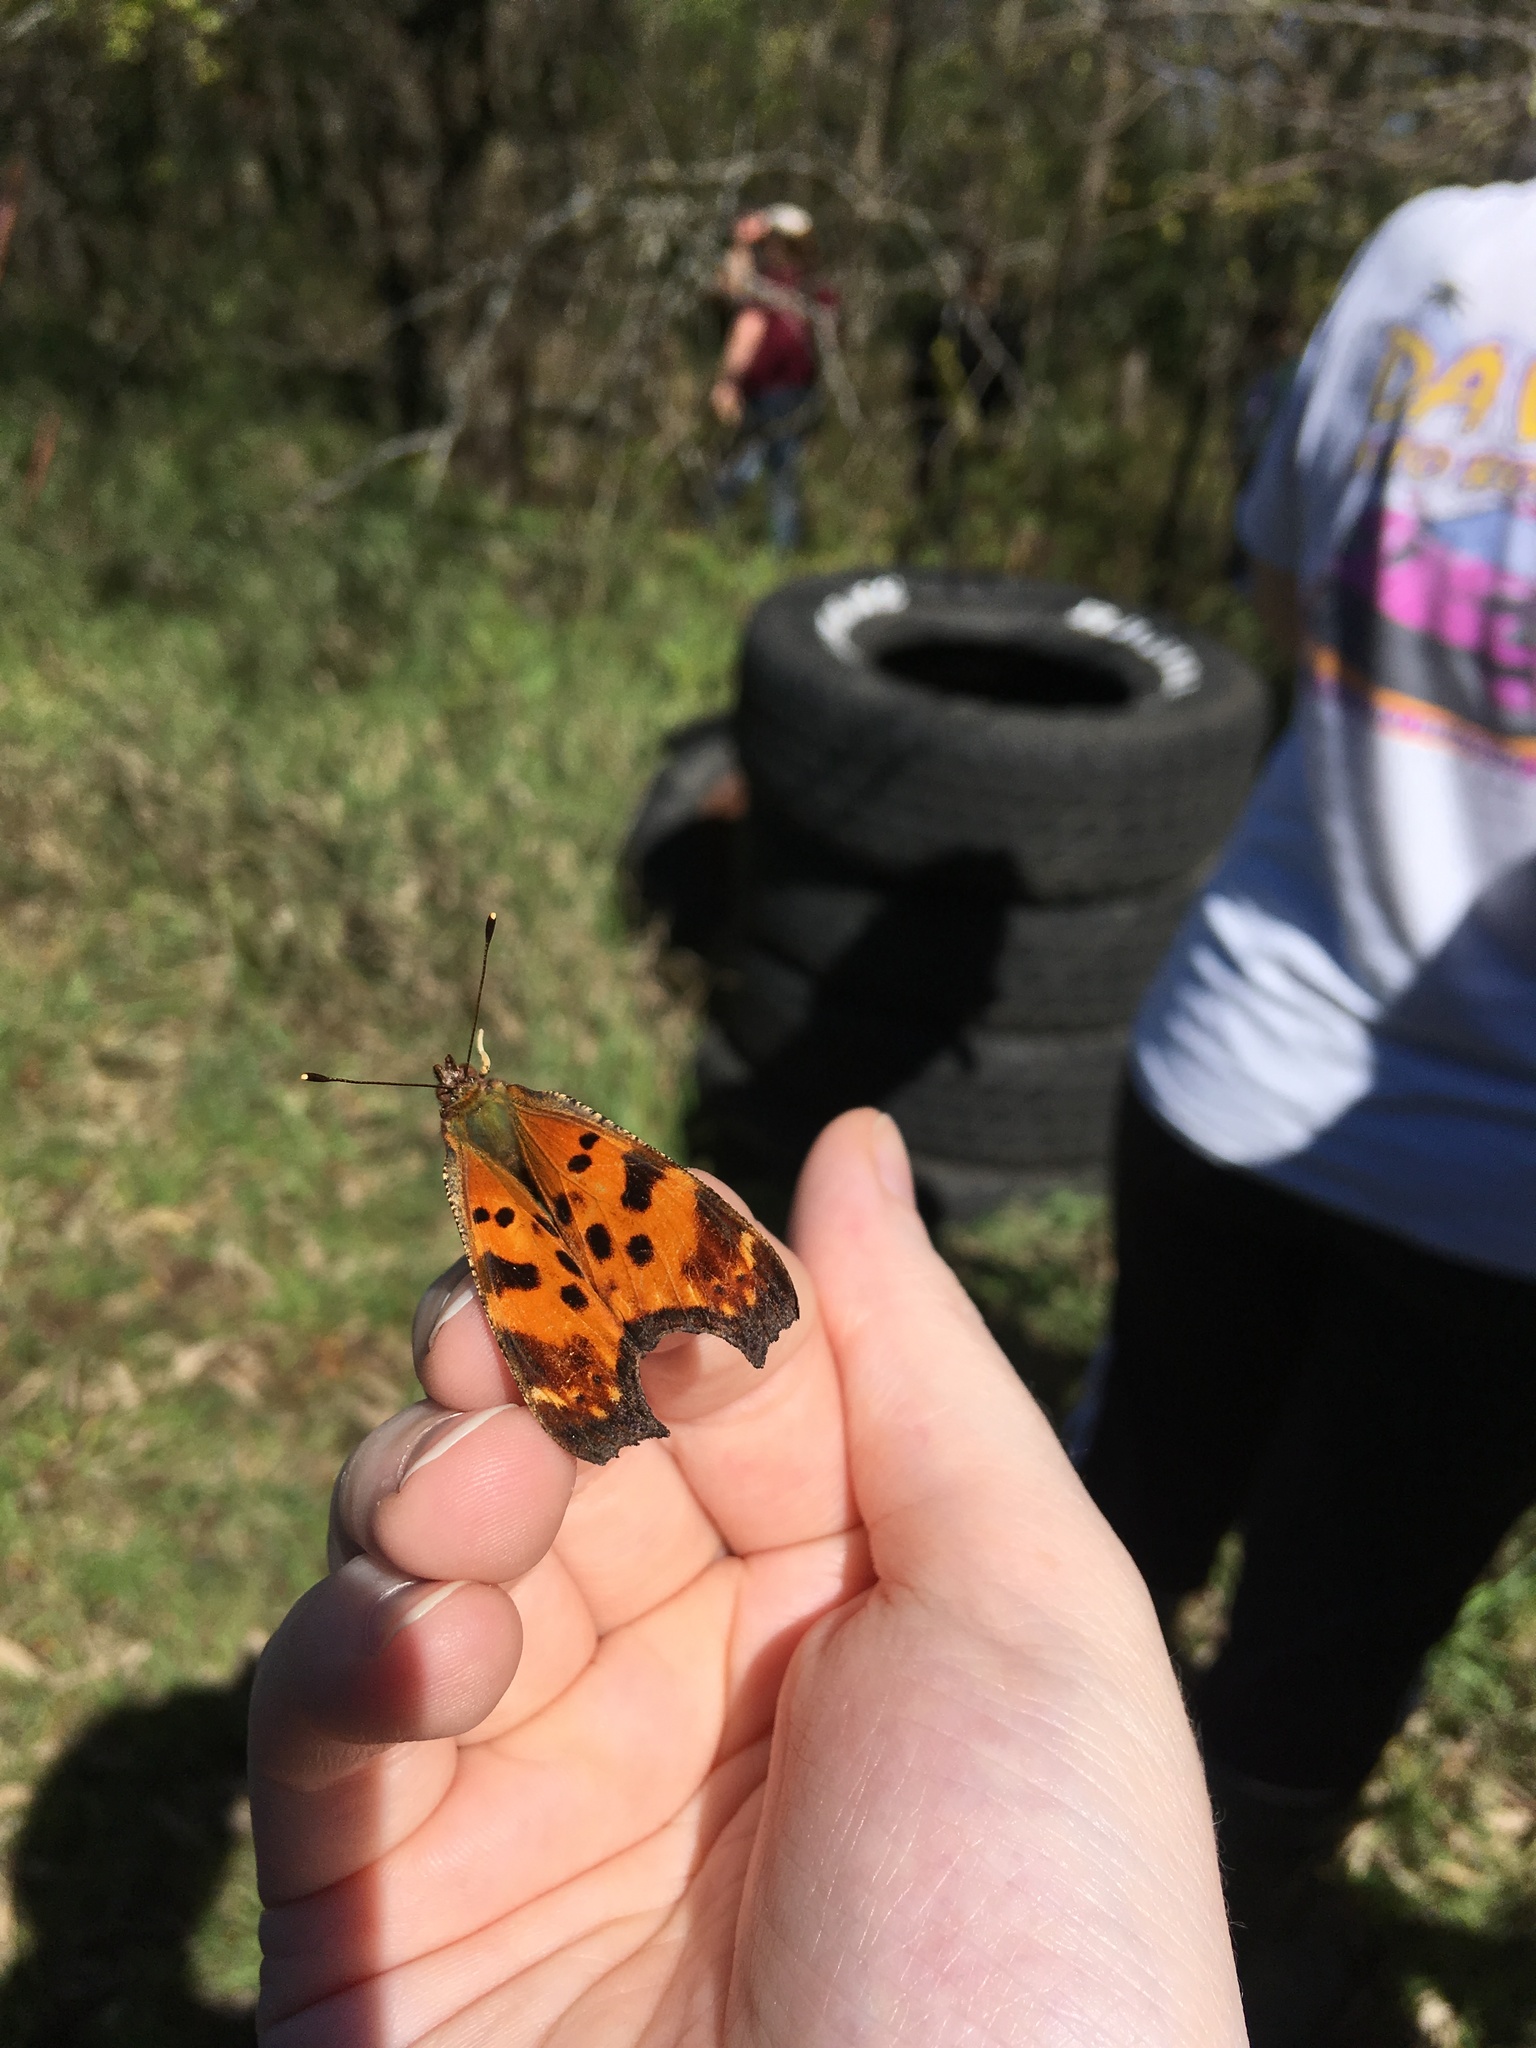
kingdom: Animalia
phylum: Arthropoda
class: Insecta
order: Lepidoptera
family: Nymphalidae
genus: Polygonia
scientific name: Polygonia comma
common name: Eastern comma
